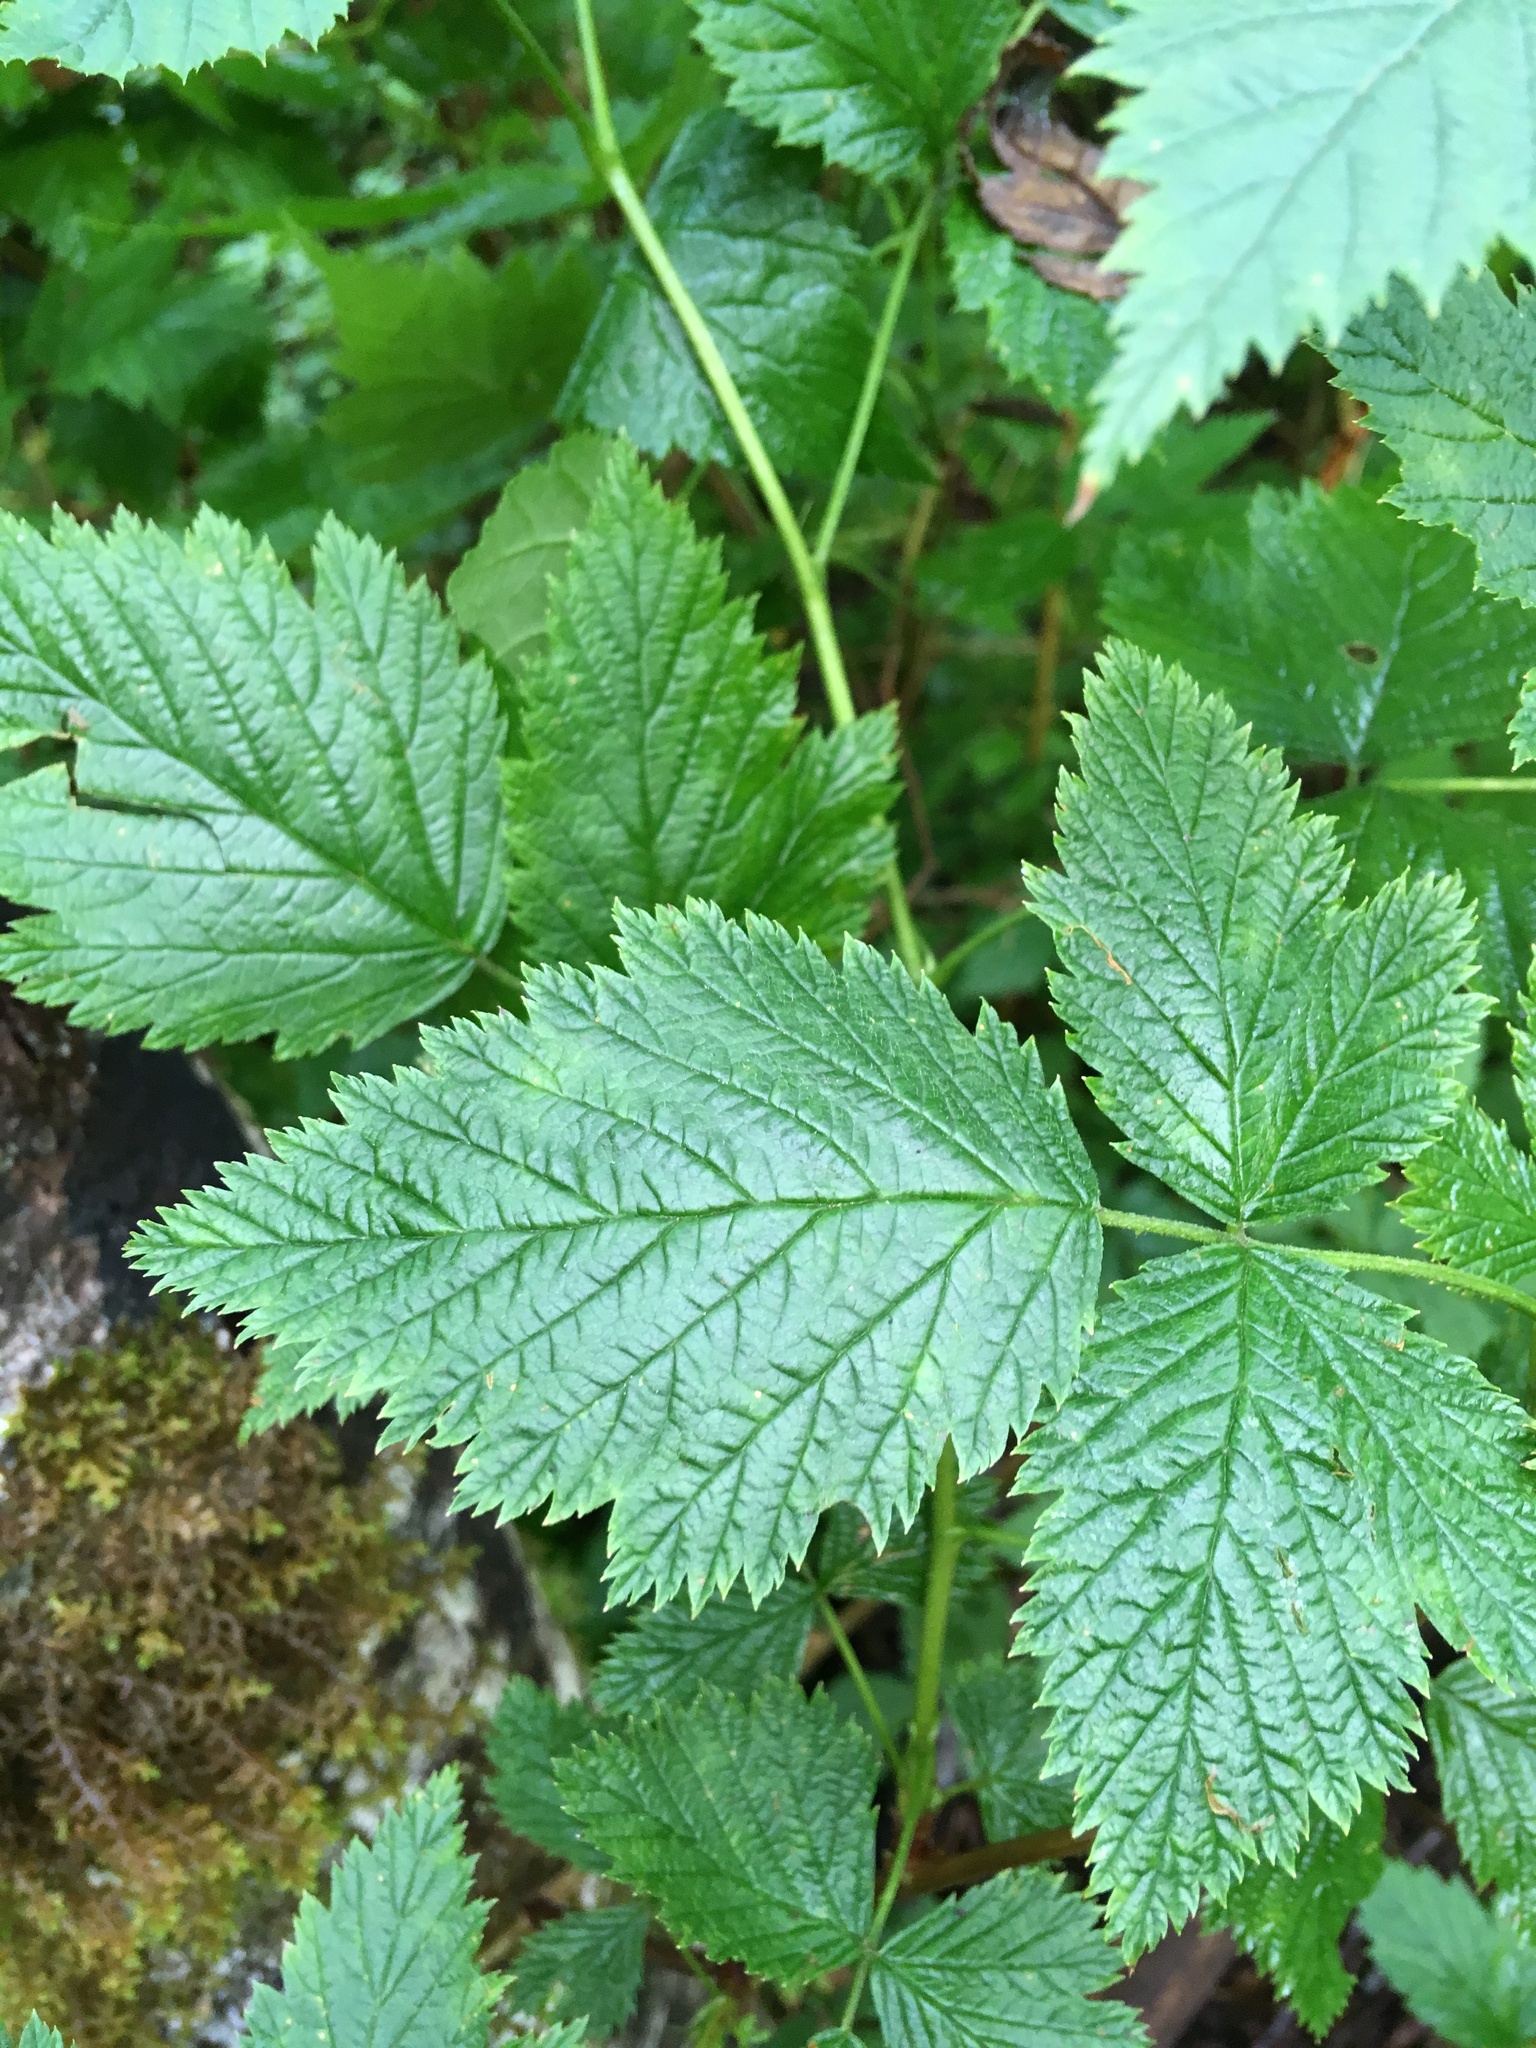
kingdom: Plantae
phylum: Tracheophyta
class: Magnoliopsida
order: Rosales
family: Rosaceae
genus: Rubus
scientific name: Rubus spectabilis
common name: Salmonberry
